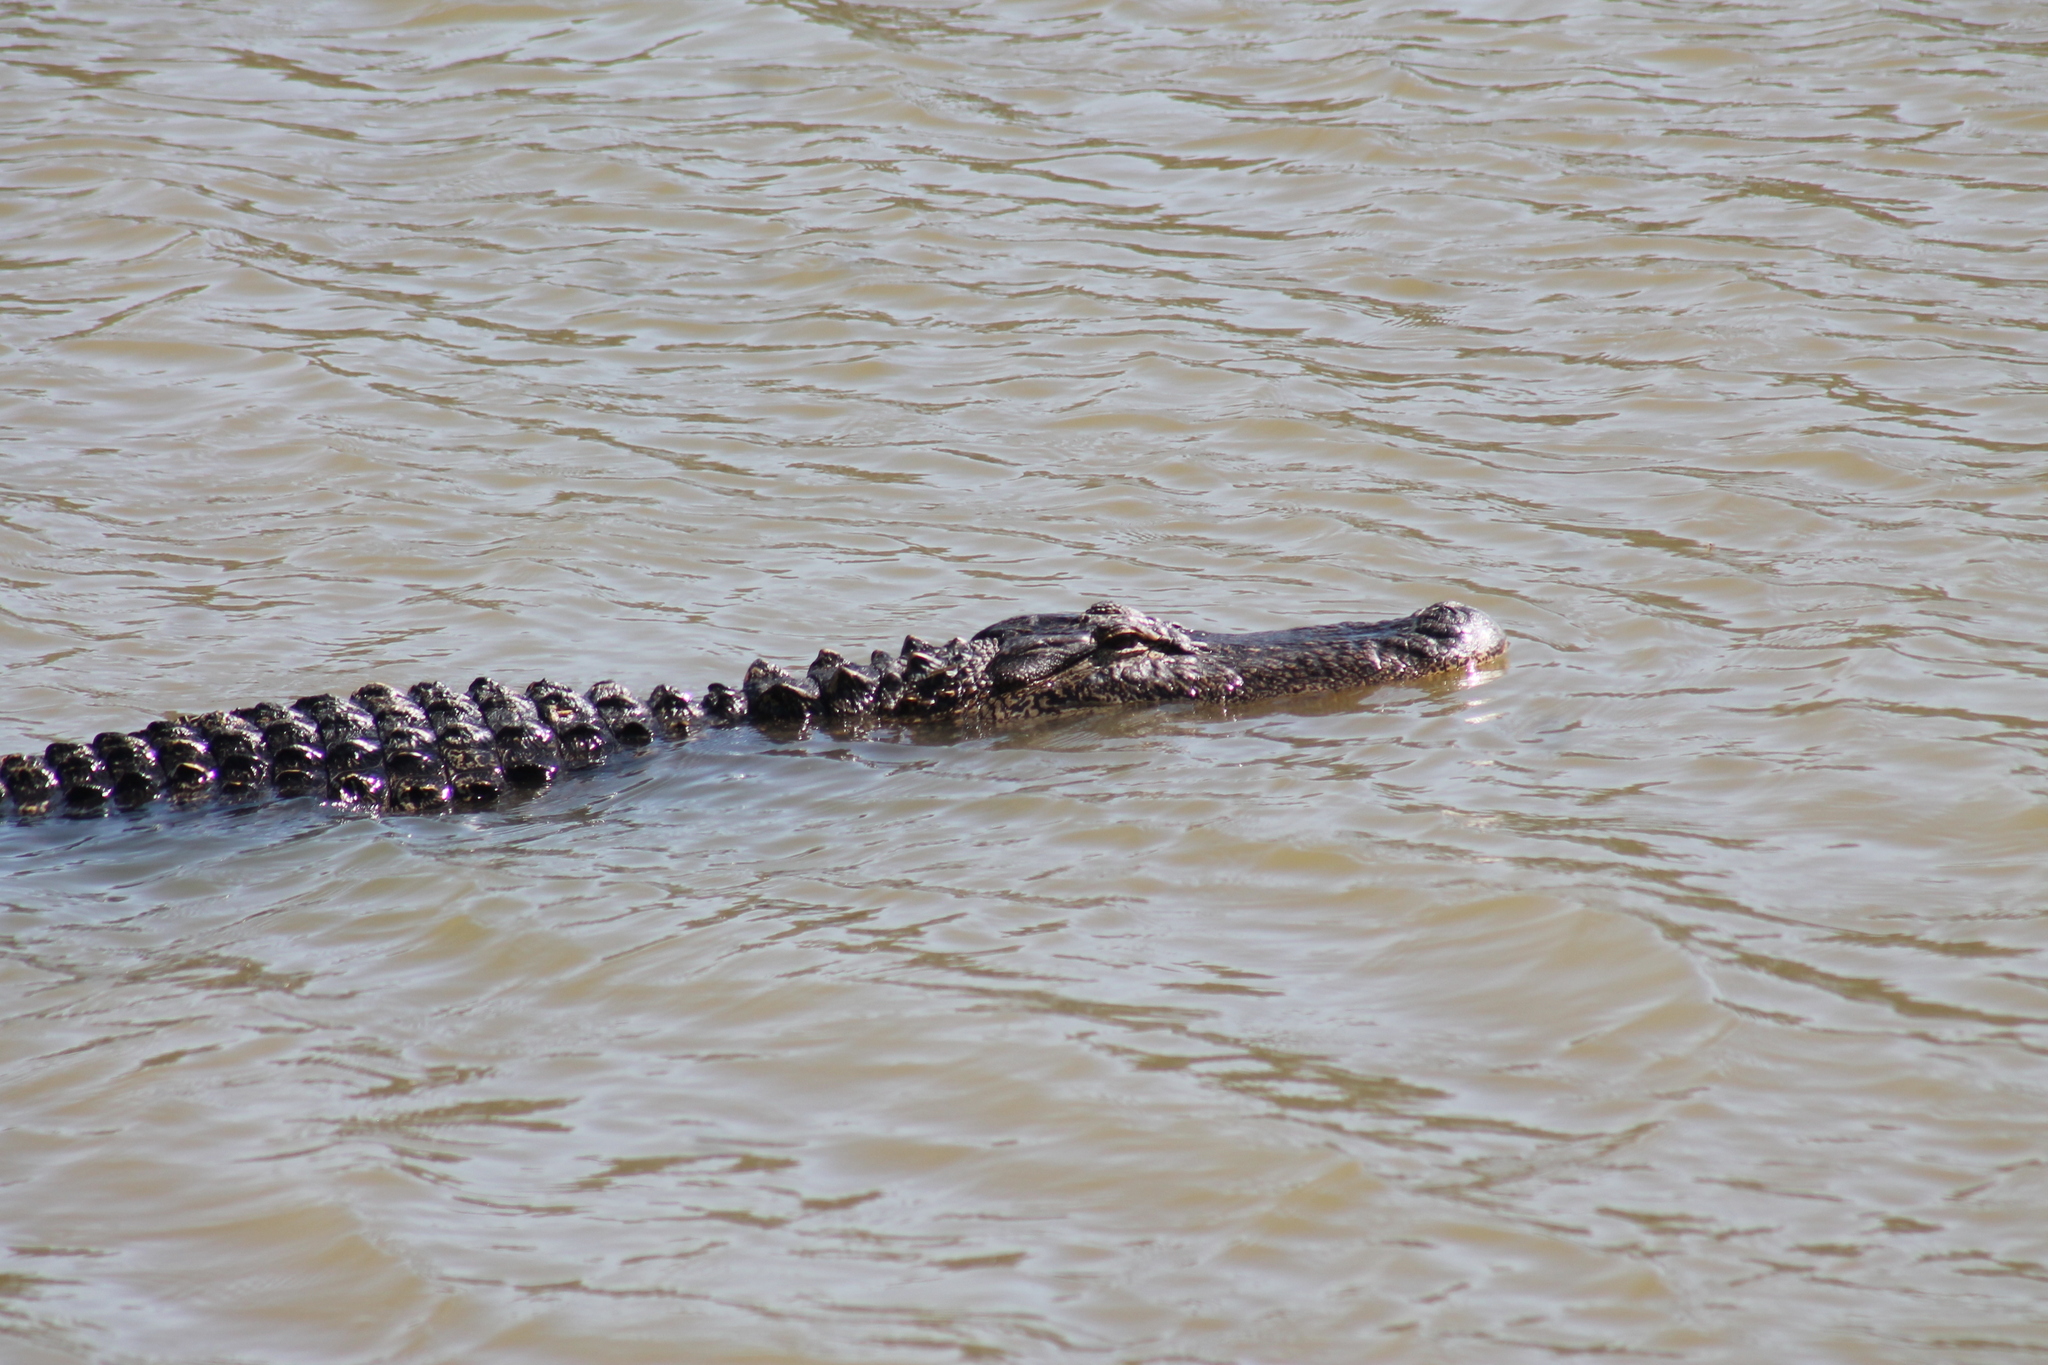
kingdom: Animalia
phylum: Chordata
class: Crocodylia
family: Alligatoridae
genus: Alligator
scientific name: Alligator mississippiensis
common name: American alligator
